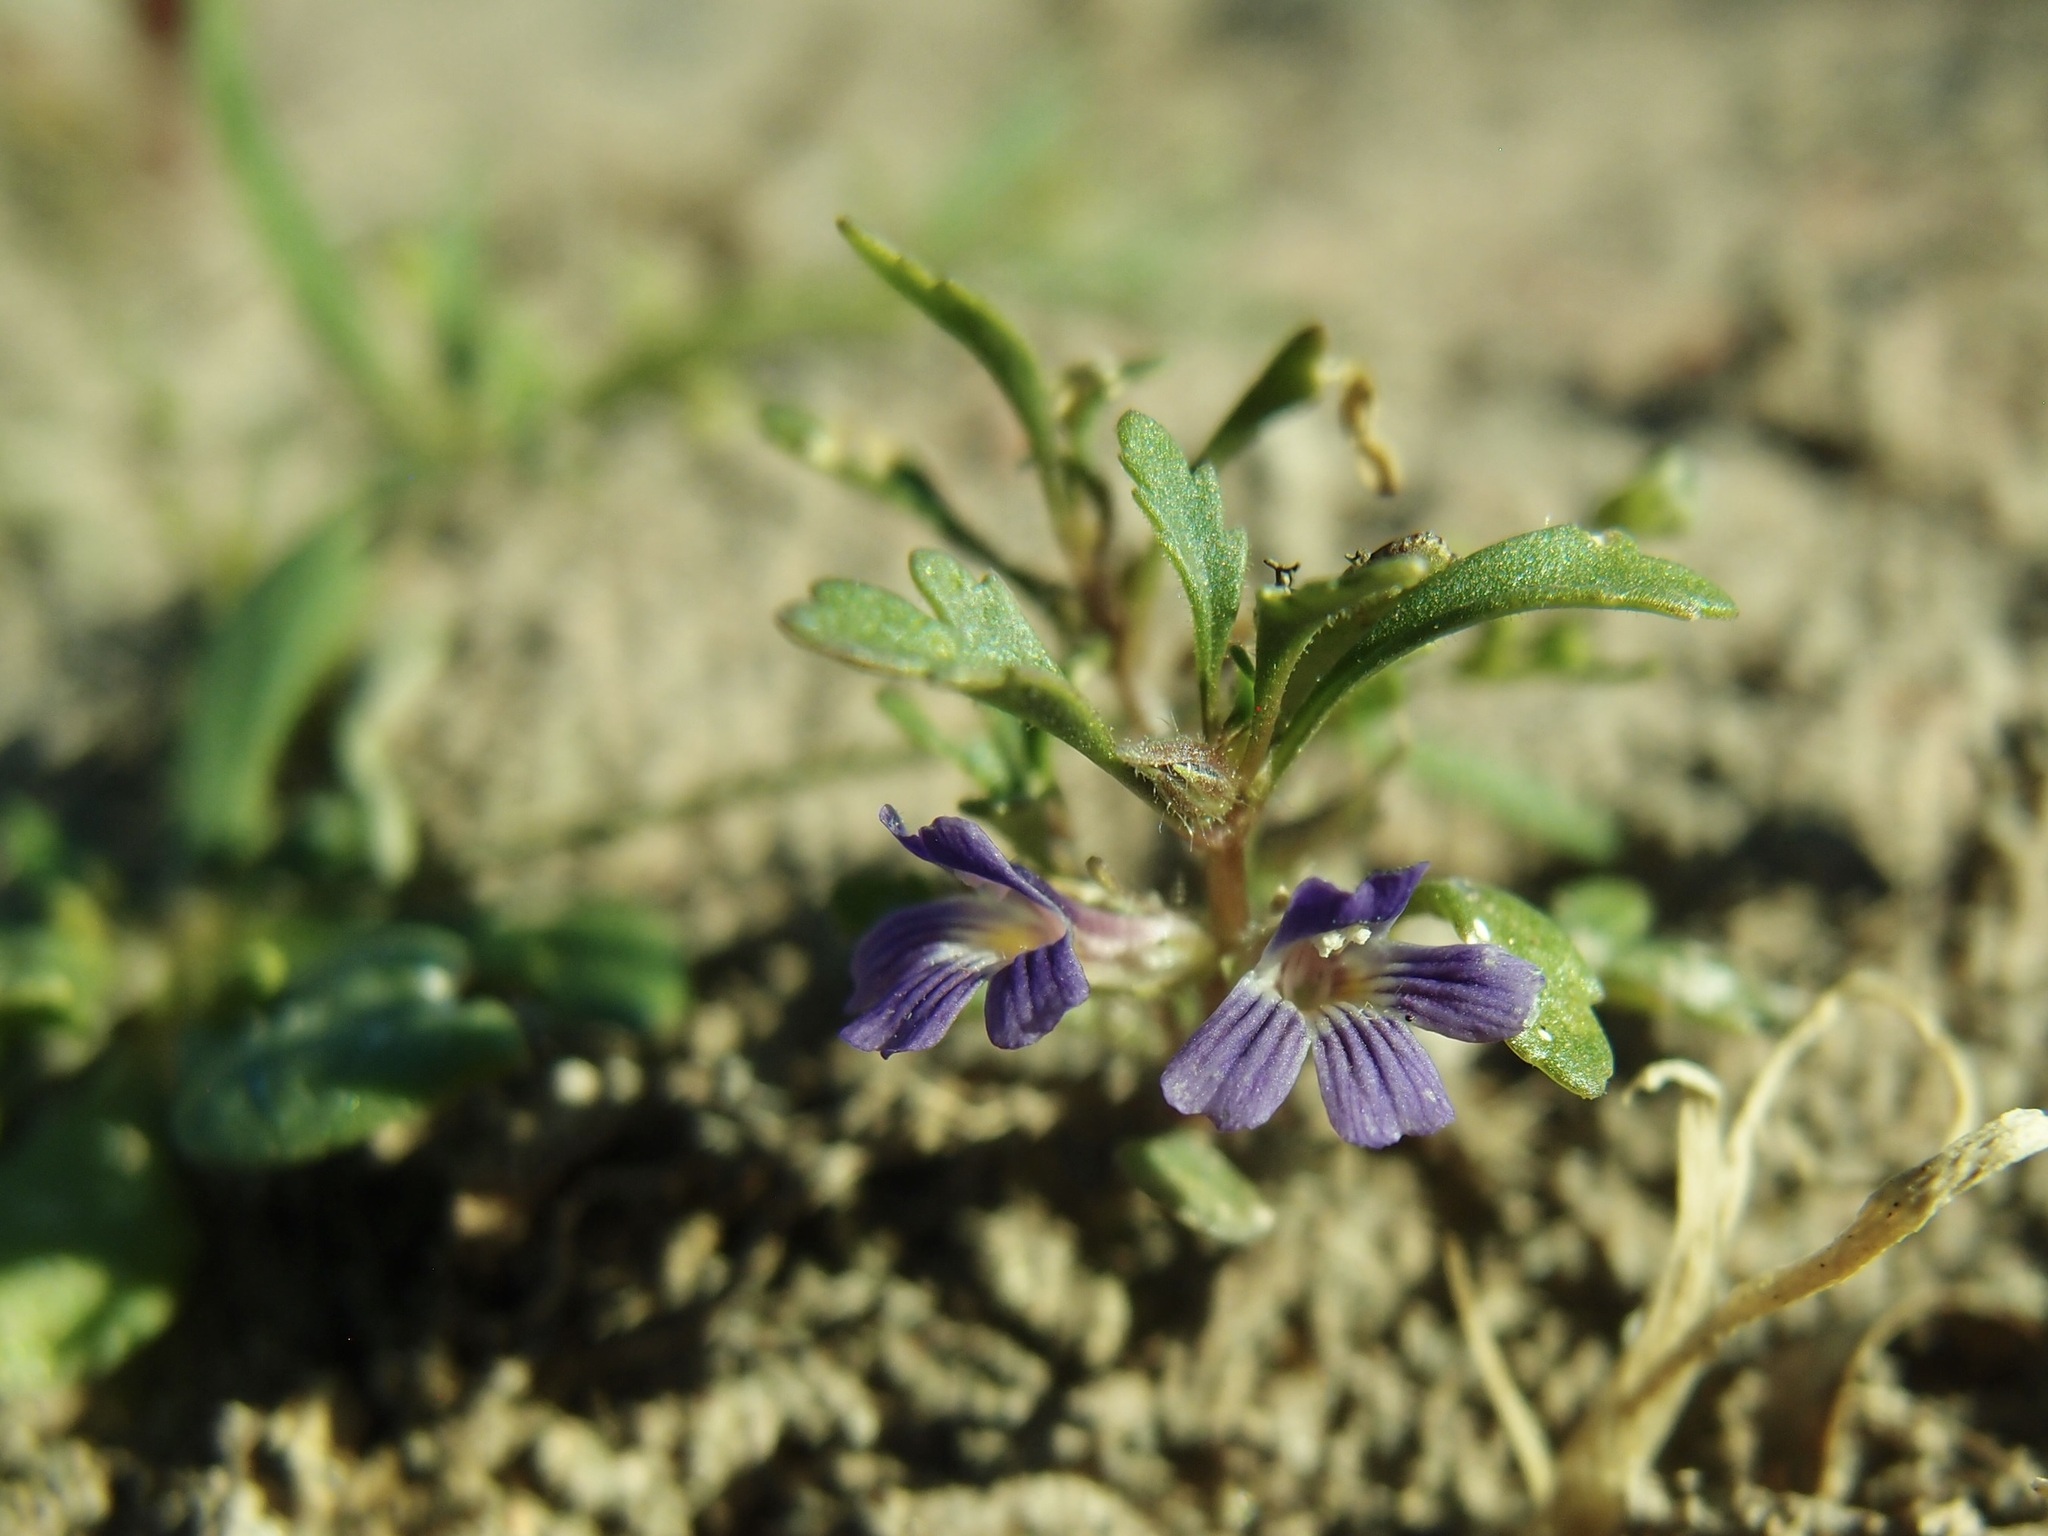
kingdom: Plantae
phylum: Tracheophyta
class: Magnoliopsida
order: Lamiales
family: Plantaginaceae
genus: Schistophragma
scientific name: Schistophragma intermedium
